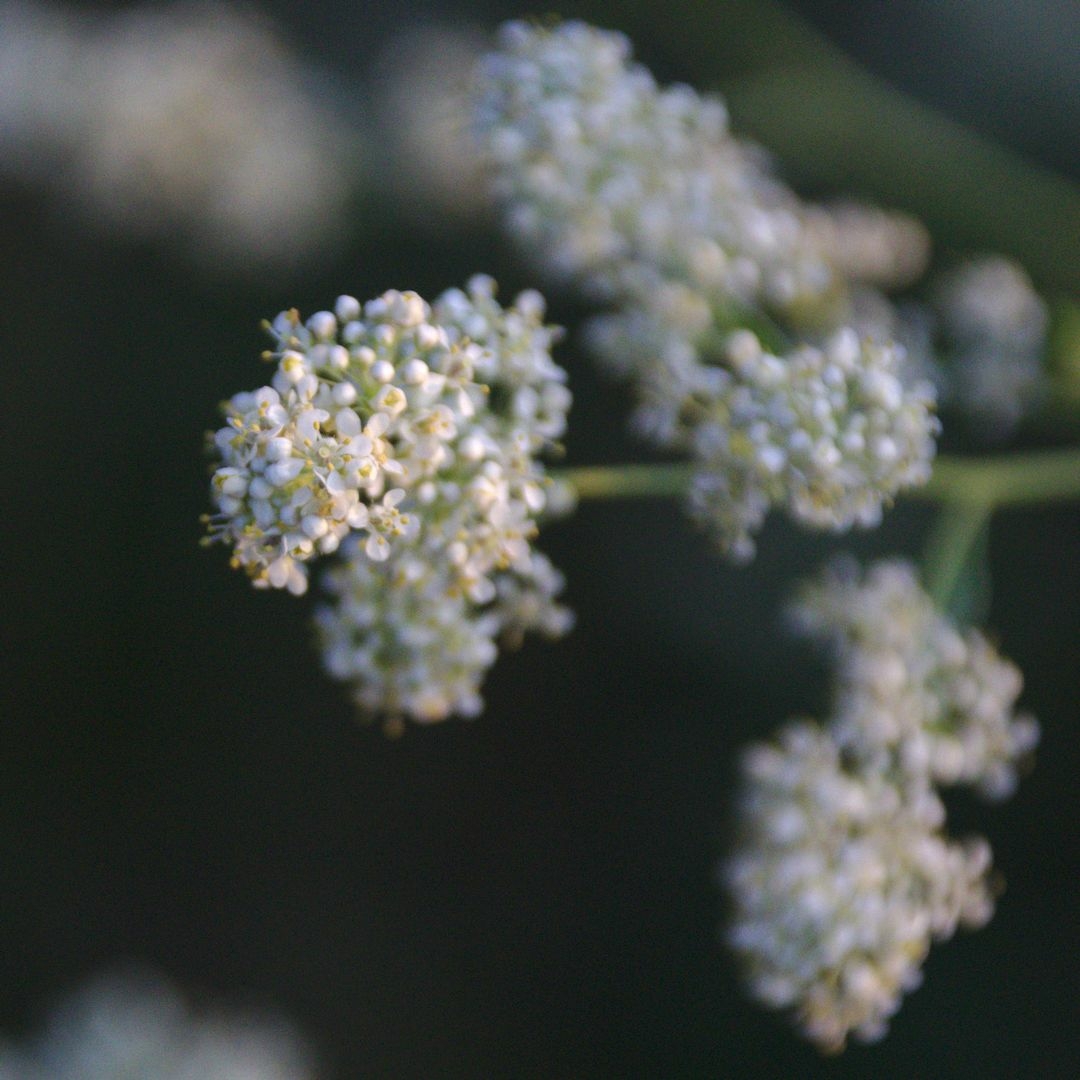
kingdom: Plantae
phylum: Tracheophyta
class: Magnoliopsida
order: Brassicales
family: Brassicaceae
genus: Lepidium
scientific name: Lepidium latifolium
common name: Dittander
